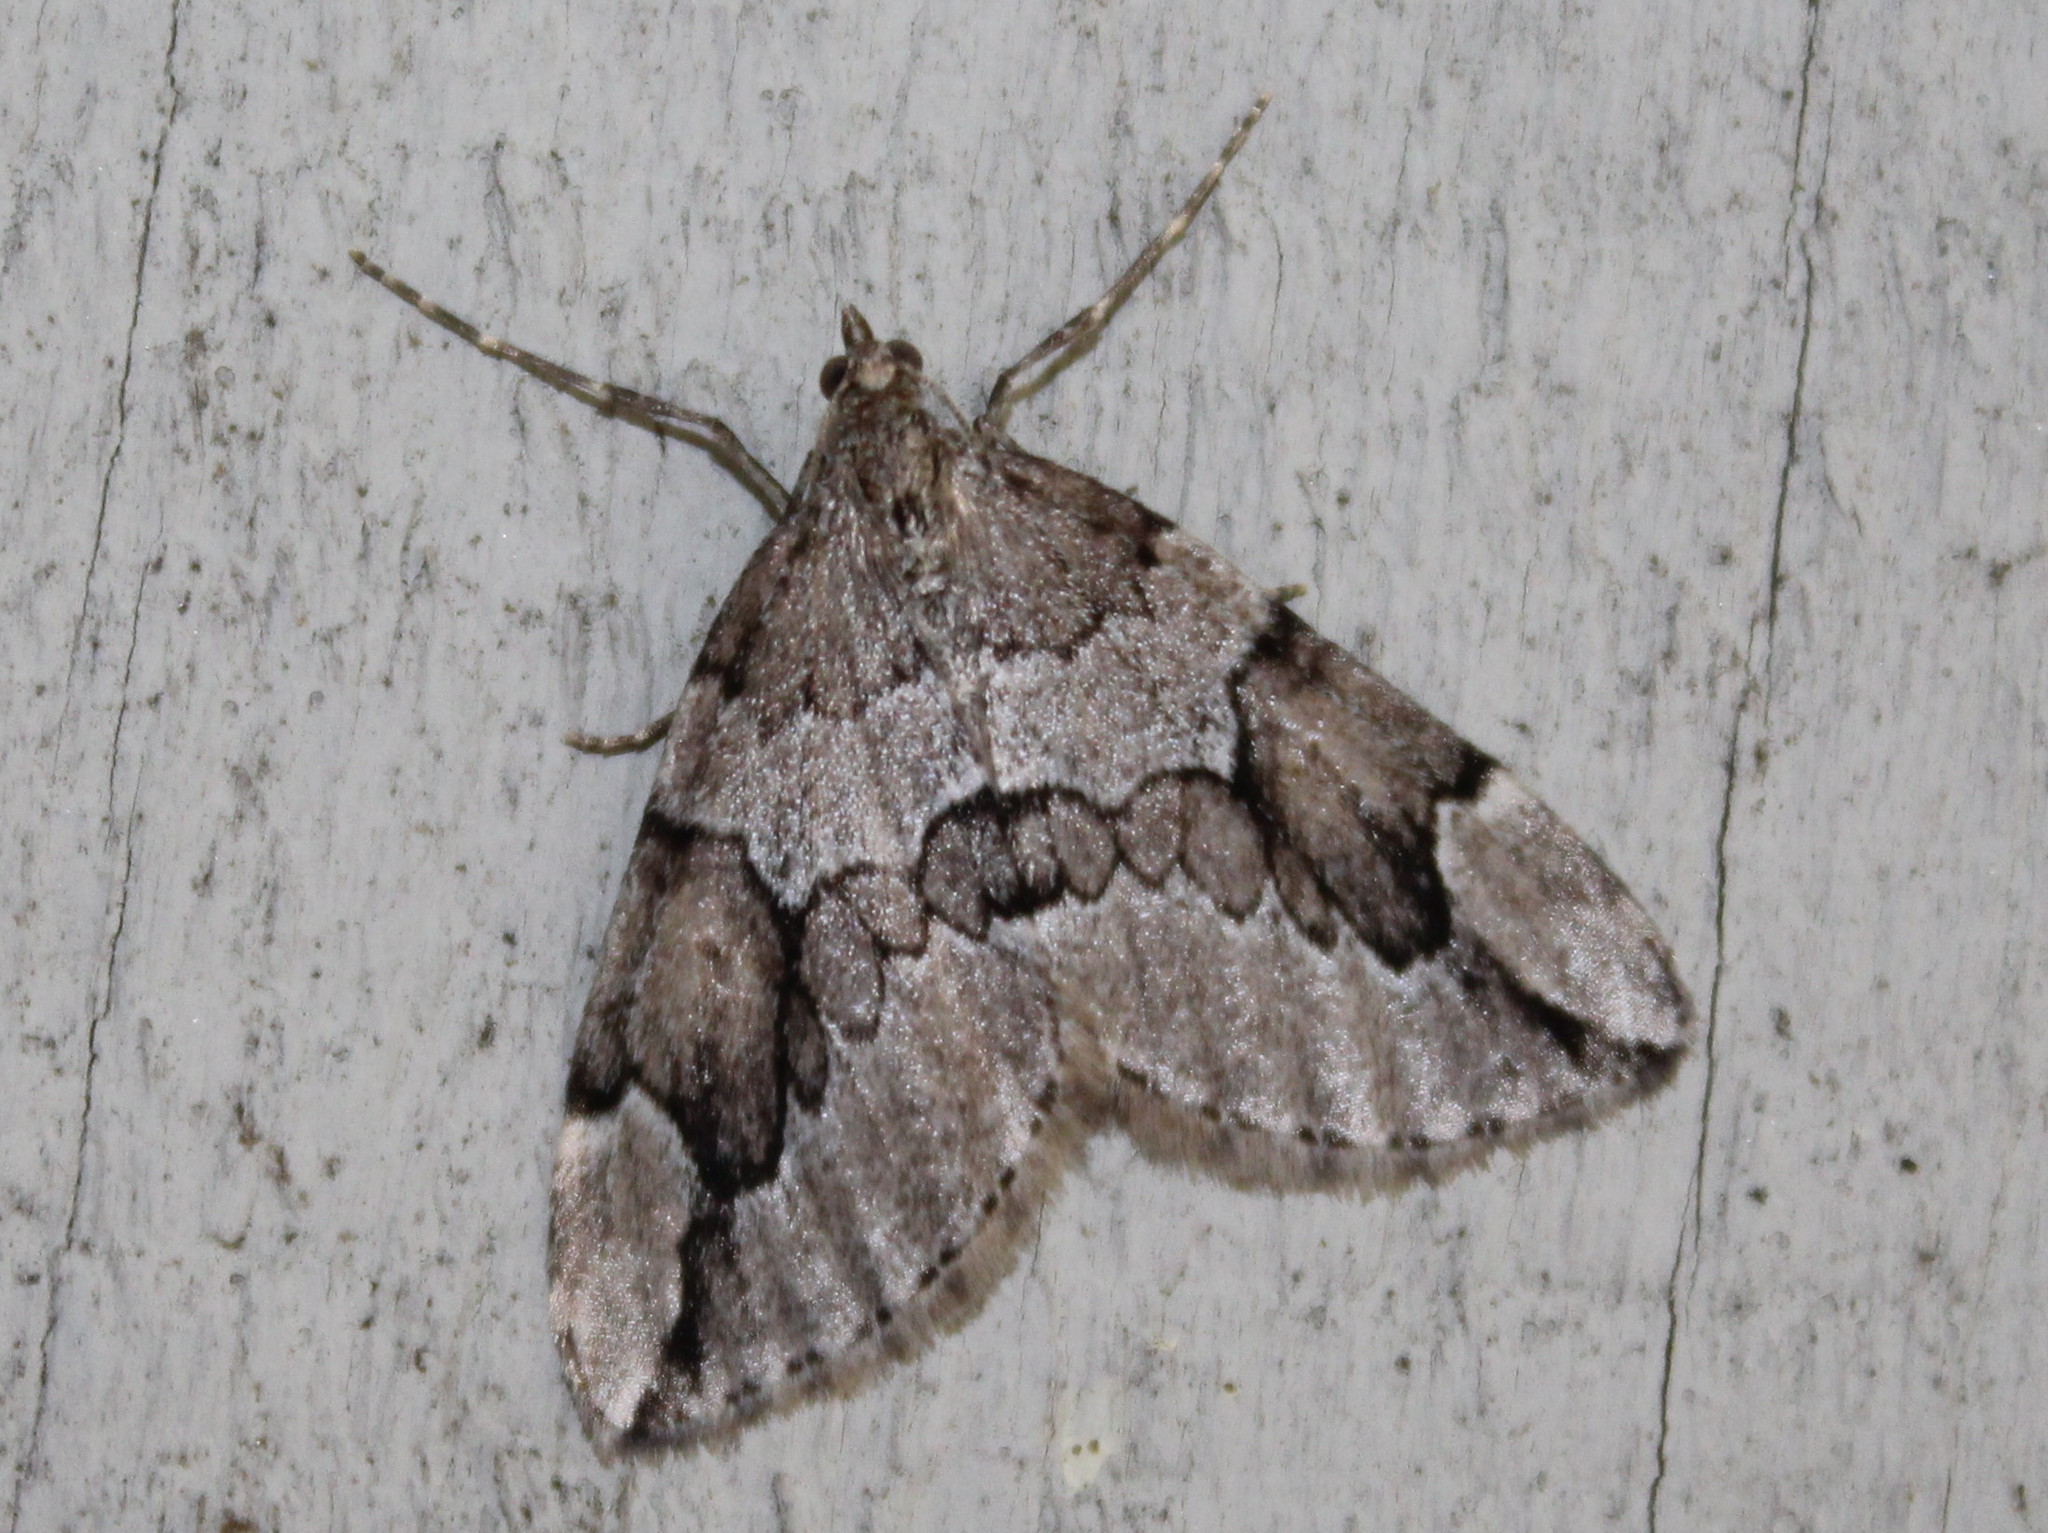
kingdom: Animalia
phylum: Arthropoda
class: Insecta
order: Lepidoptera
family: Geometridae
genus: Thera
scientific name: Thera juniperata
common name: Juniper carpet
